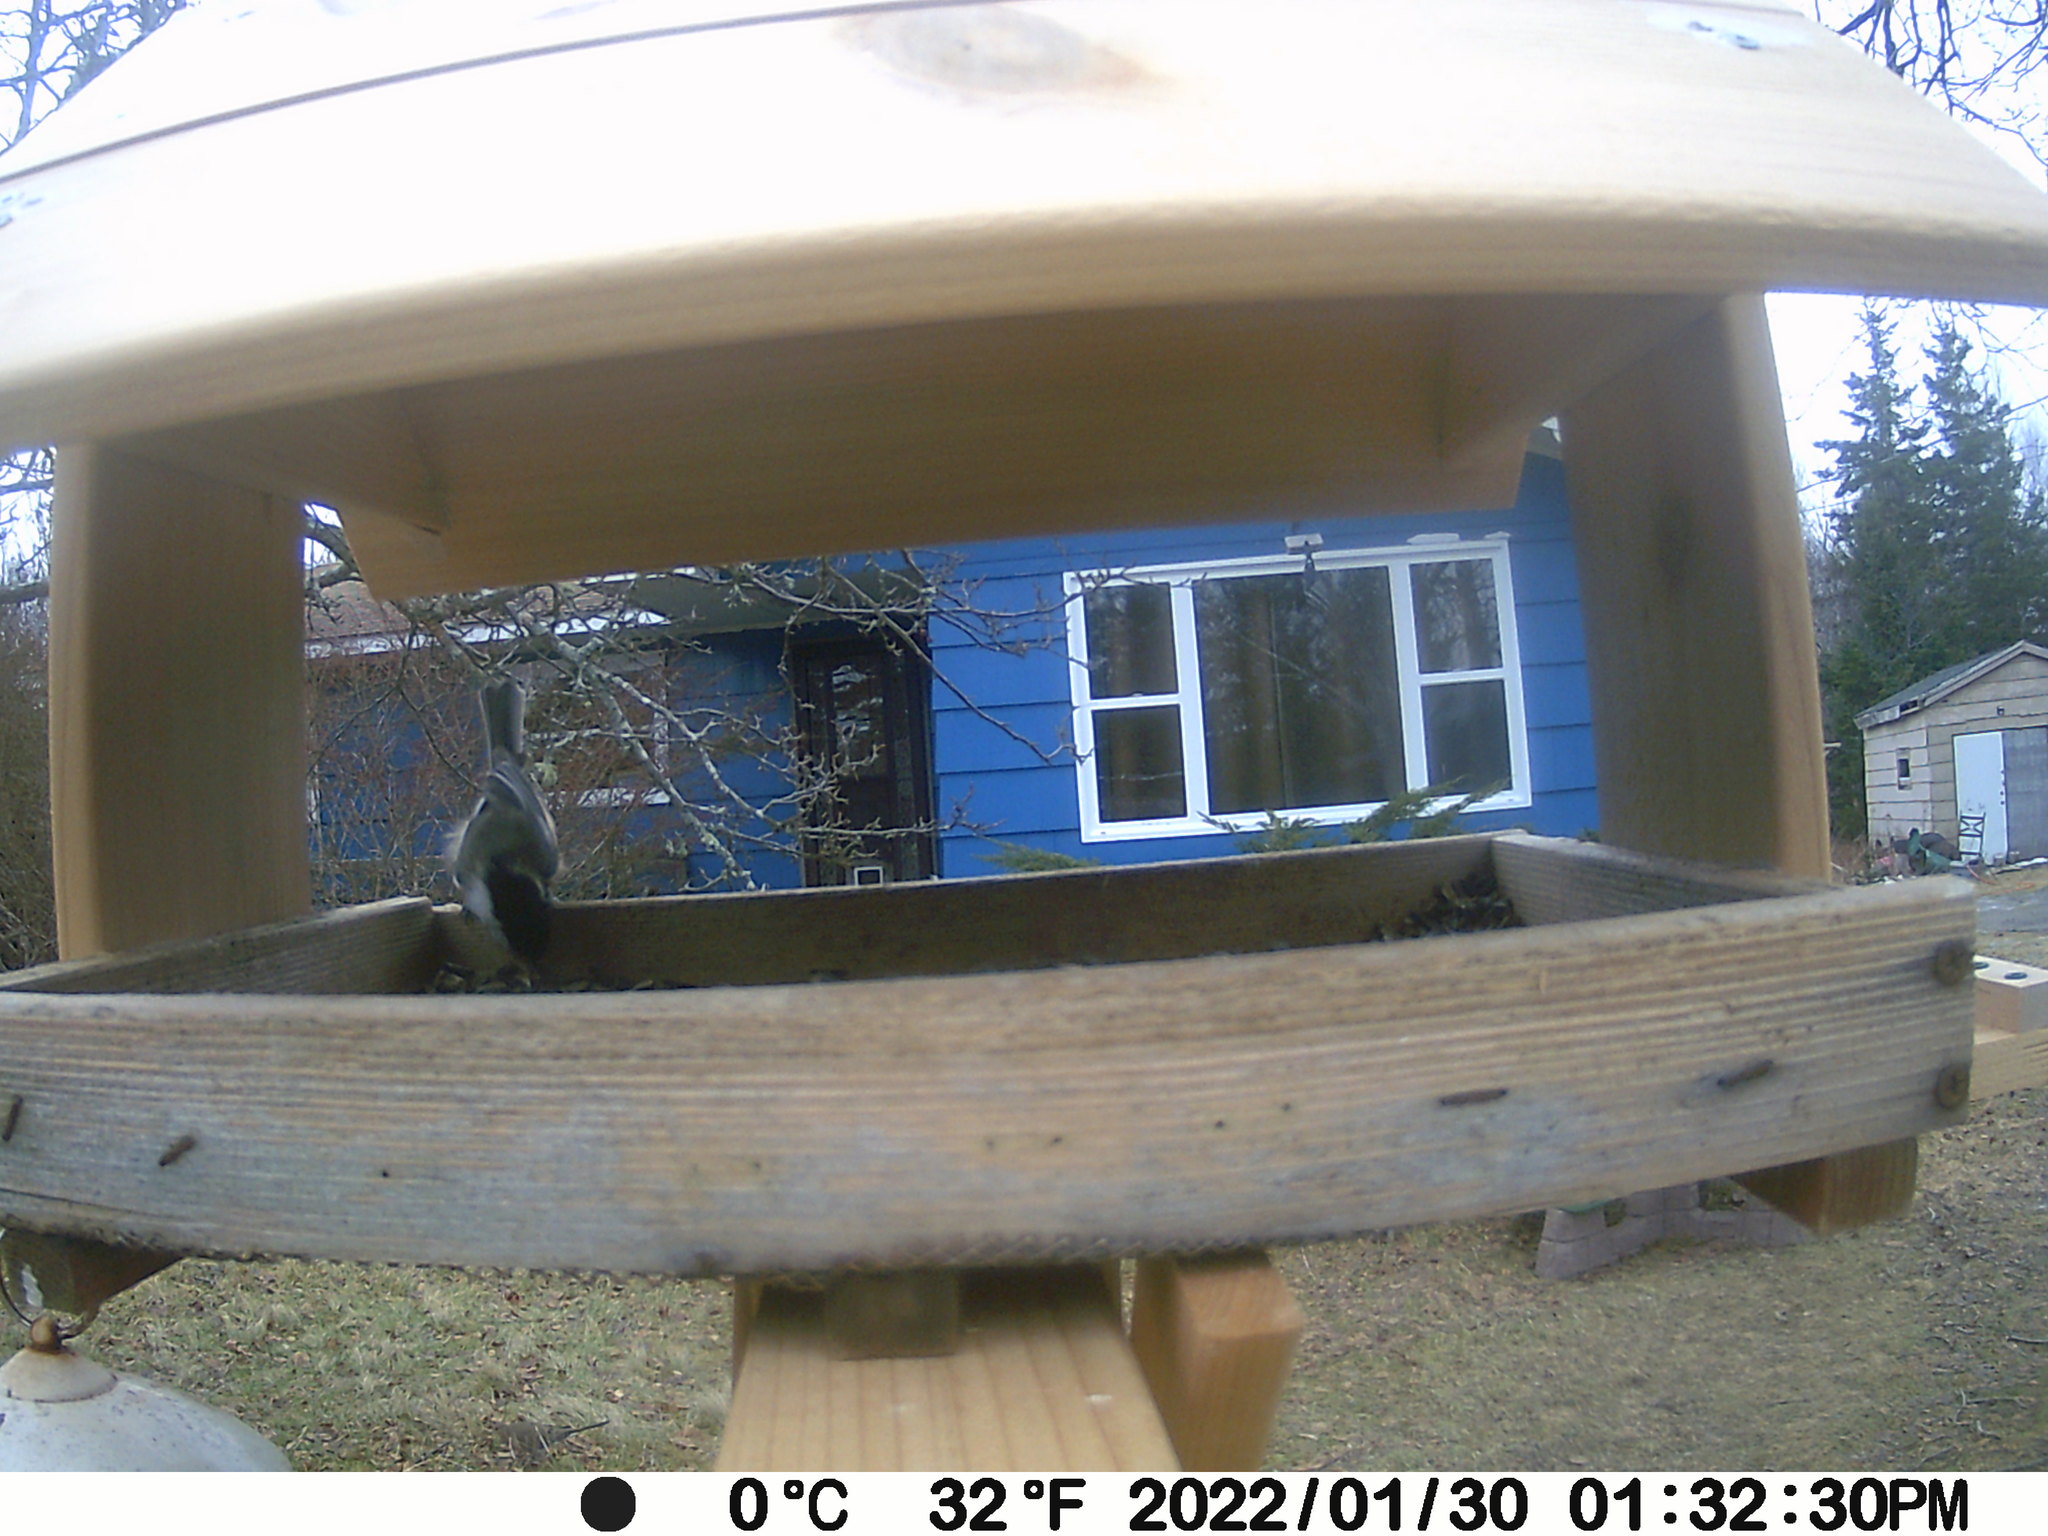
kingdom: Animalia
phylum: Chordata
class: Aves
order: Columbiformes
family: Columbidae
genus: Zenaida
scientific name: Zenaida macroura
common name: Mourning dove
